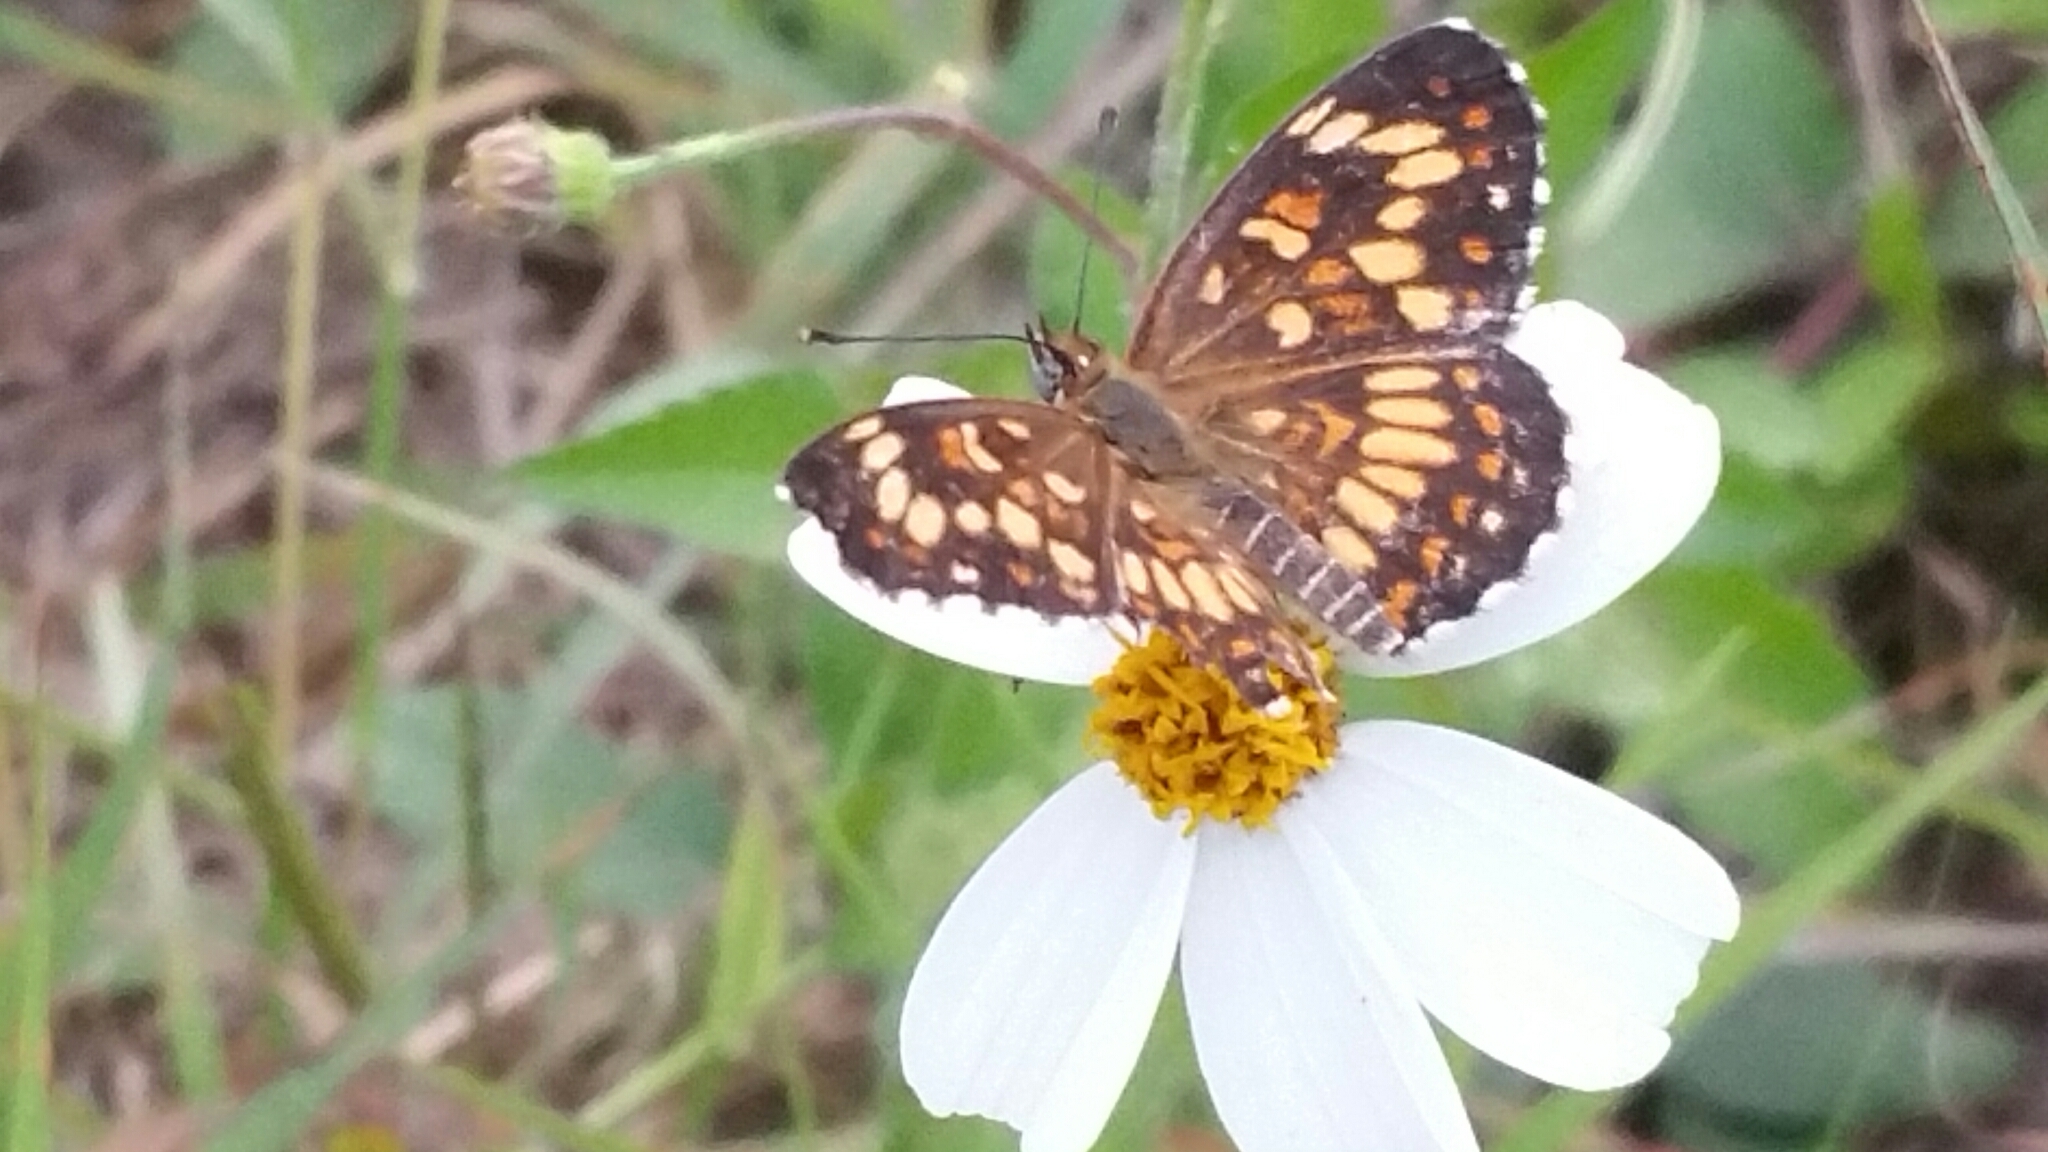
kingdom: Animalia
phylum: Arthropoda
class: Insecta
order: Lepidoptera
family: Nymphalidae
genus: Thessalia
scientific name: Thessalia theona
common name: Nymphalid moth
